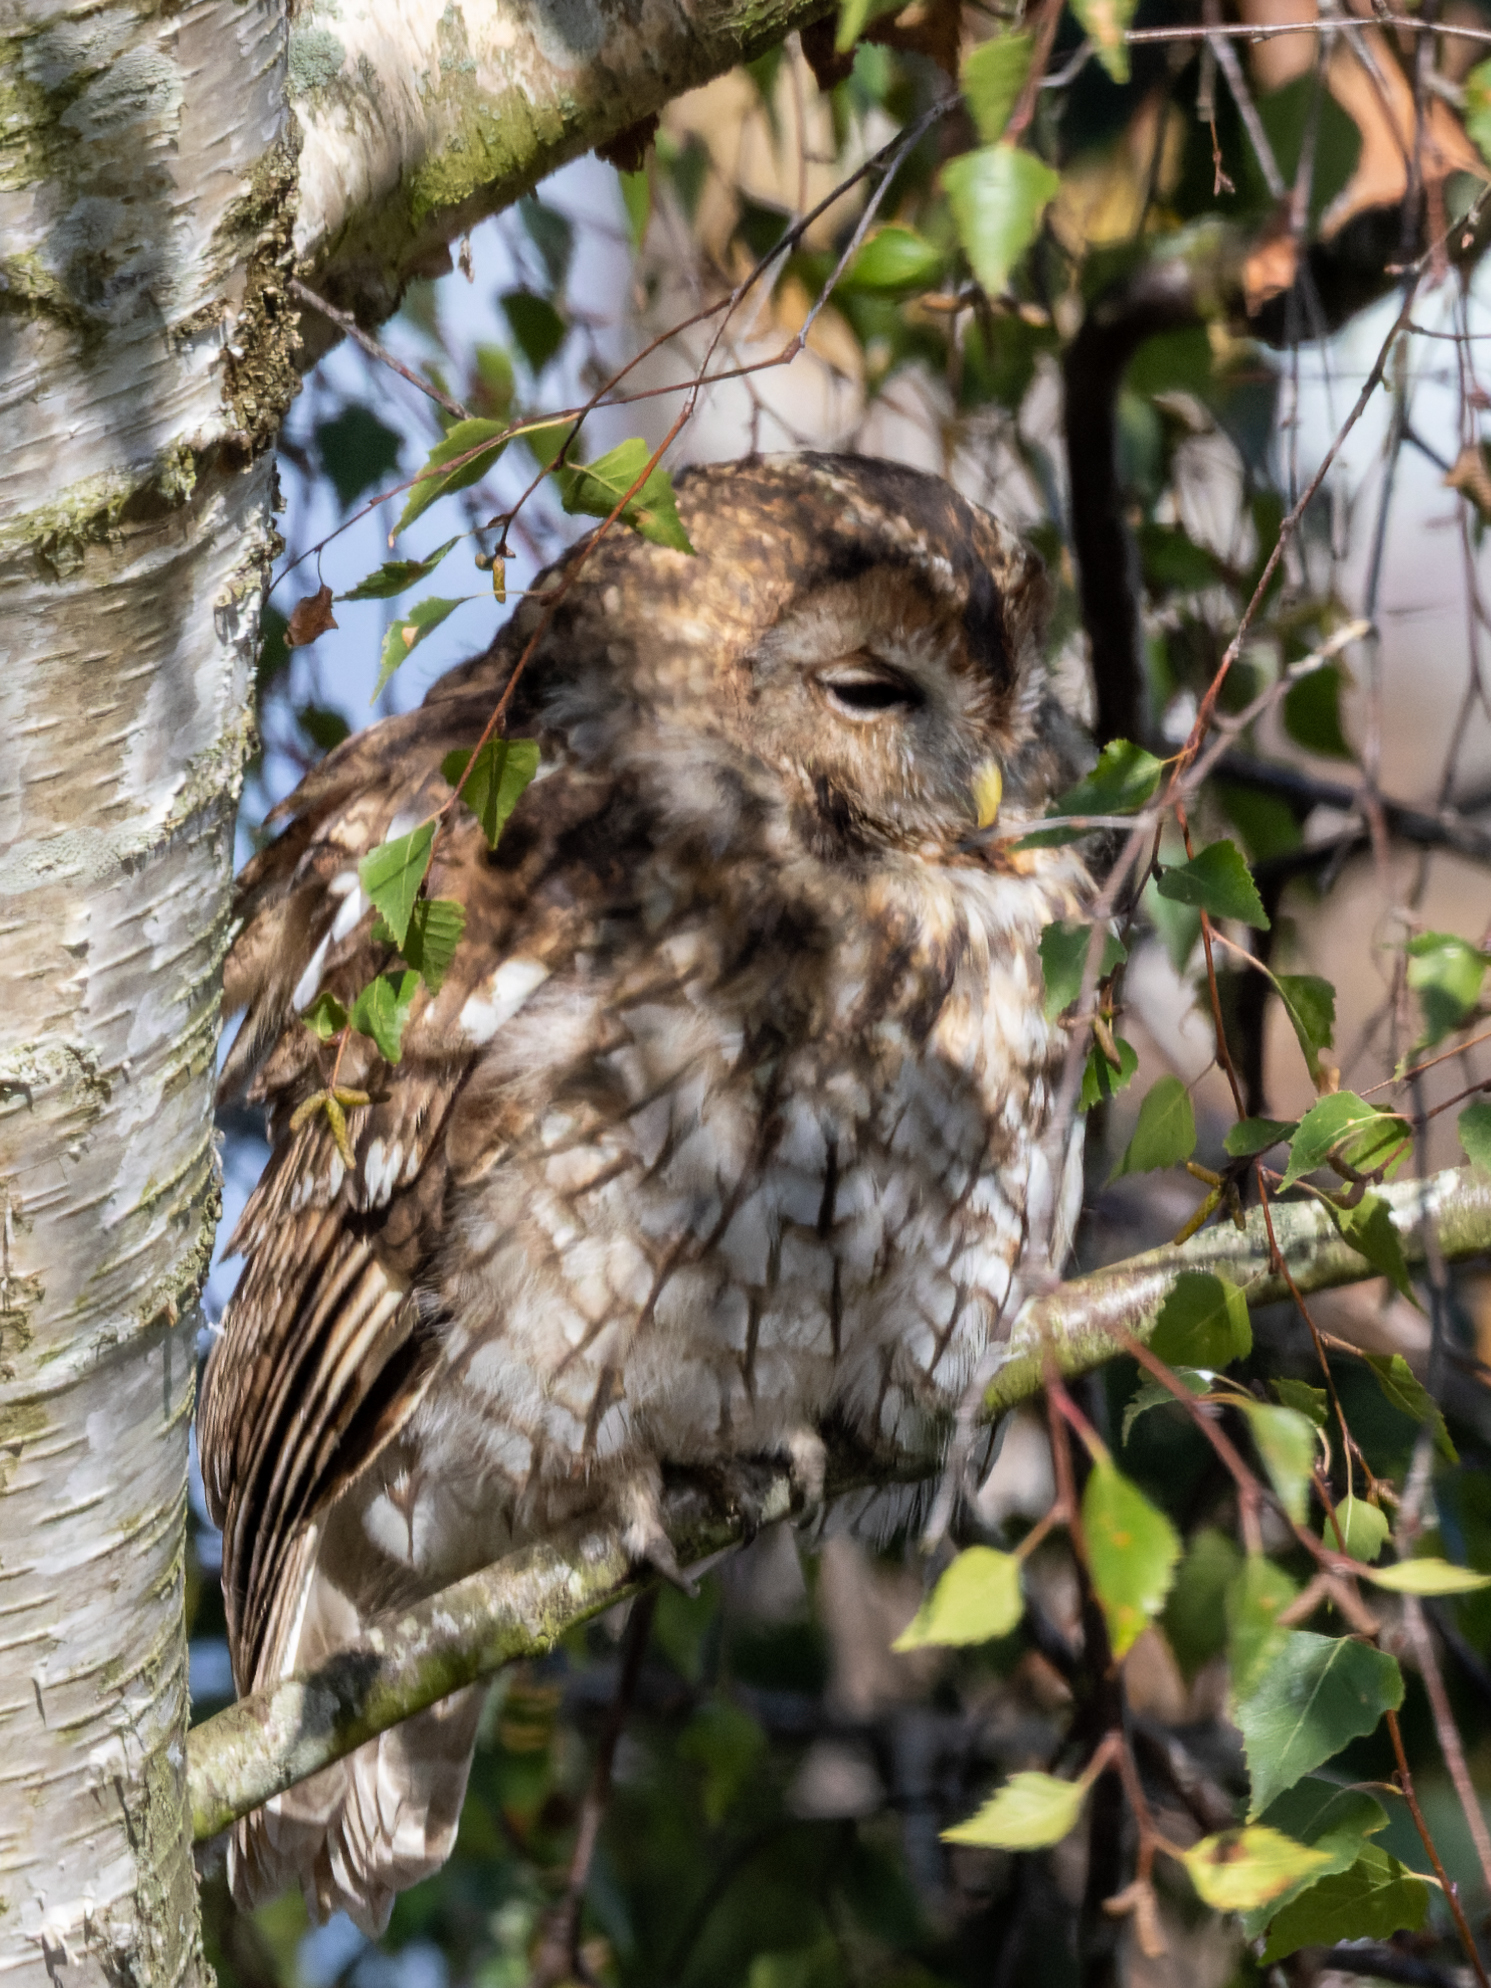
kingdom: Animalia
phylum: Chordata
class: Aves
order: Strigiformes
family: Strigidae
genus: Strix
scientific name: Strix aluco
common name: Tawny owl
